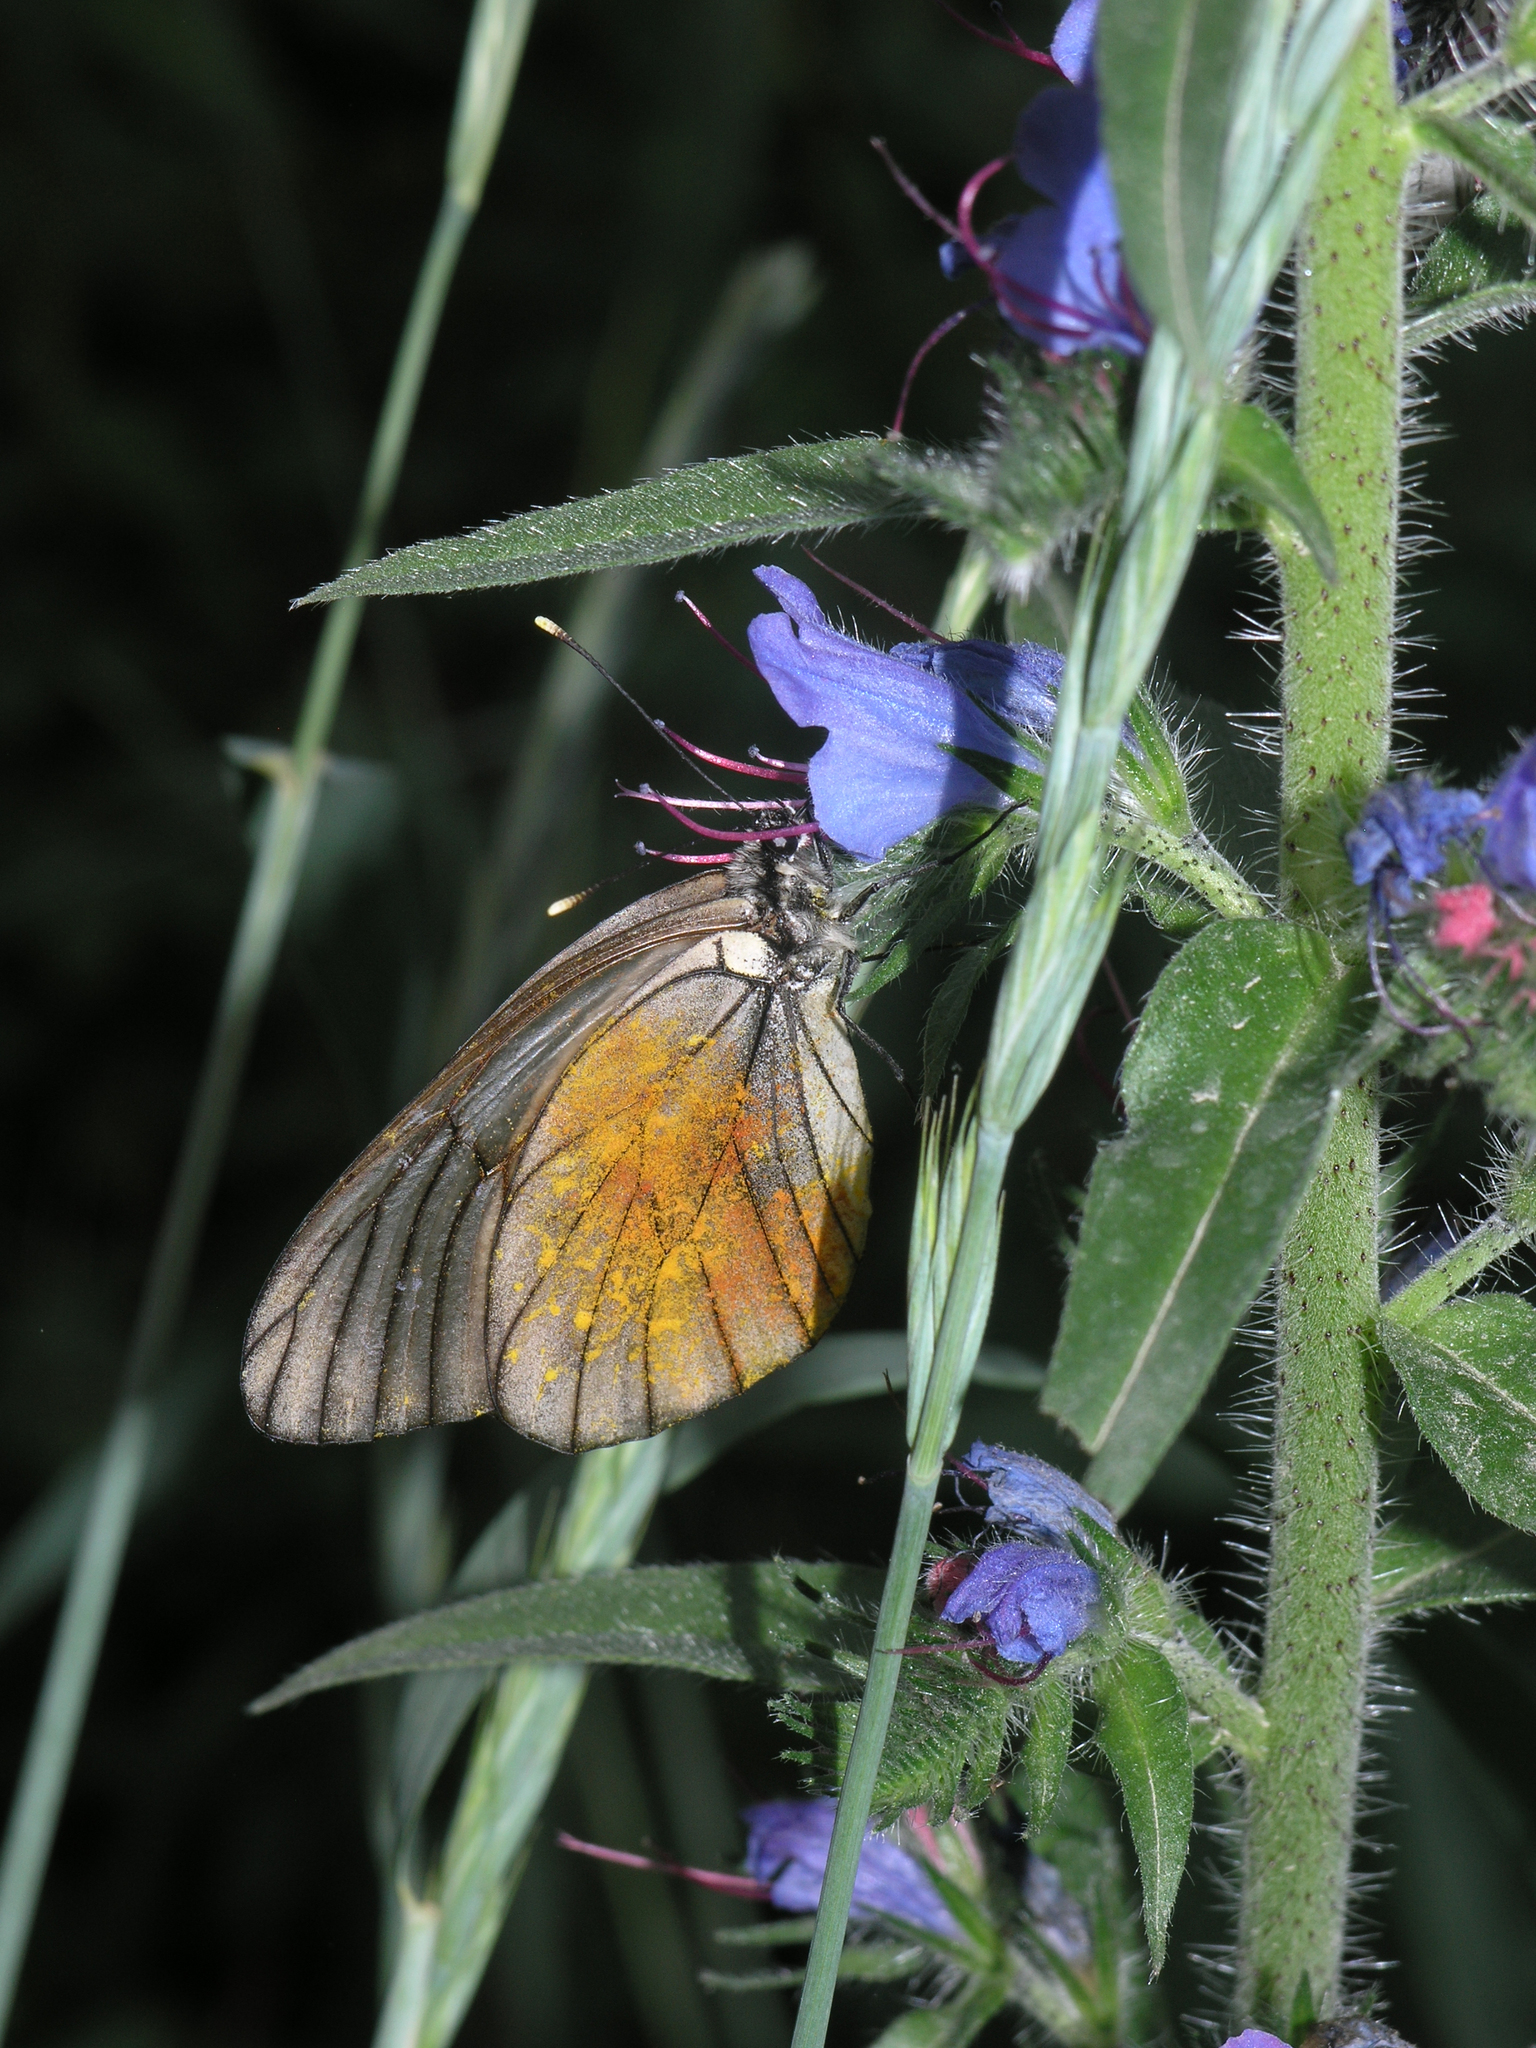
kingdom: Animalia
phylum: Arthropoda
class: Insecta
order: Lepidoptera
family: Pieridae
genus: Aporia
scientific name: Aporia crataegi
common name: Black-veined white
